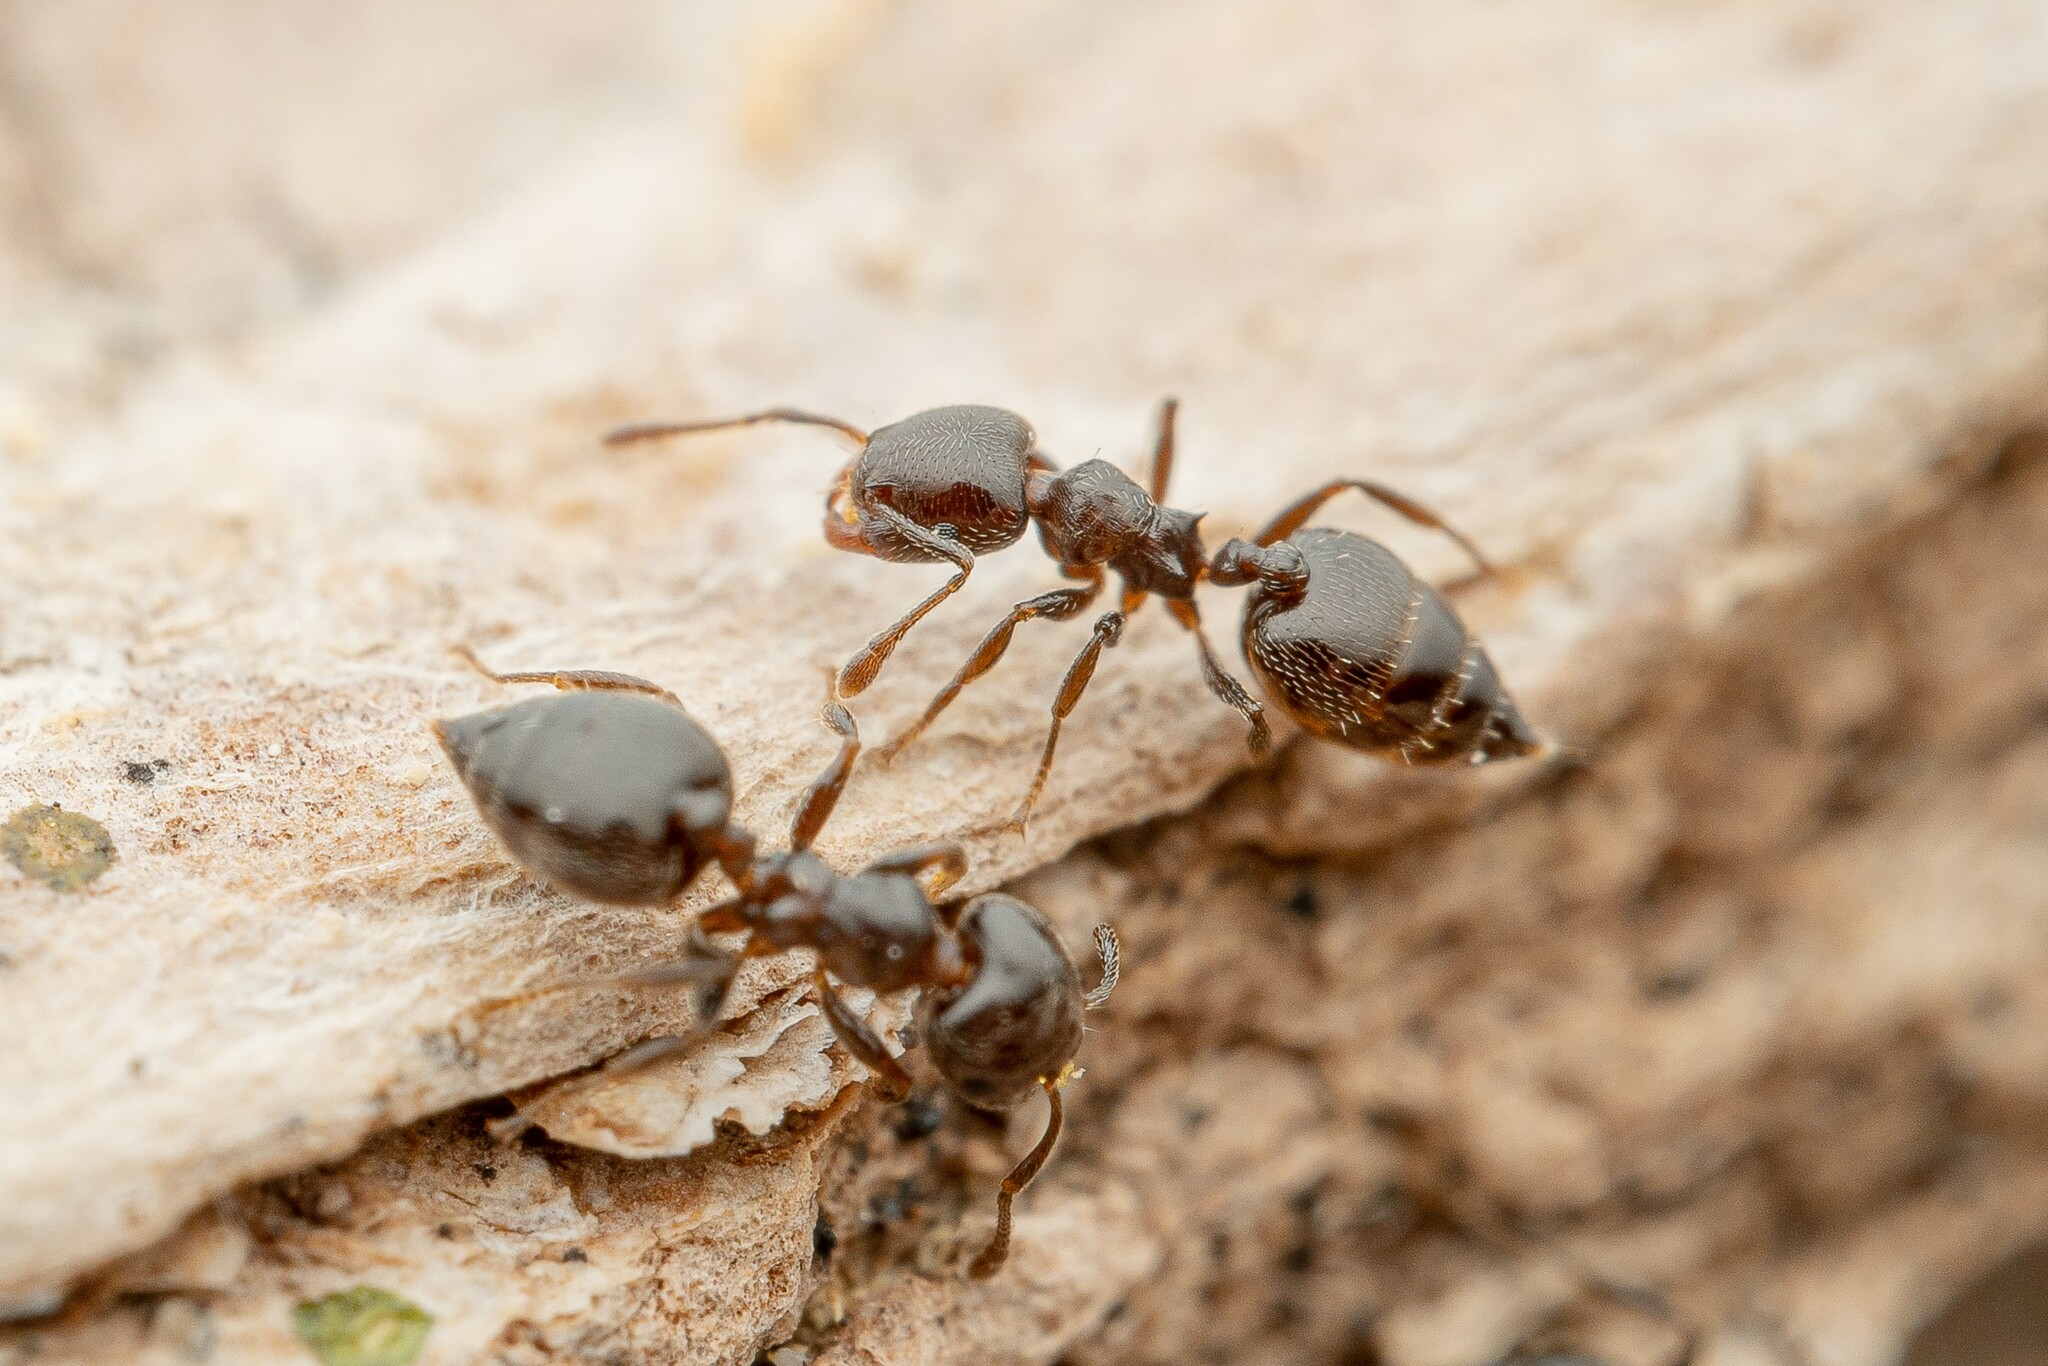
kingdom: Animalia
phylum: Arthropoda
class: Insecta
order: Hymenoptera
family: Formicidae
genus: Crematogaster
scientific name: Crematogaster torosa
